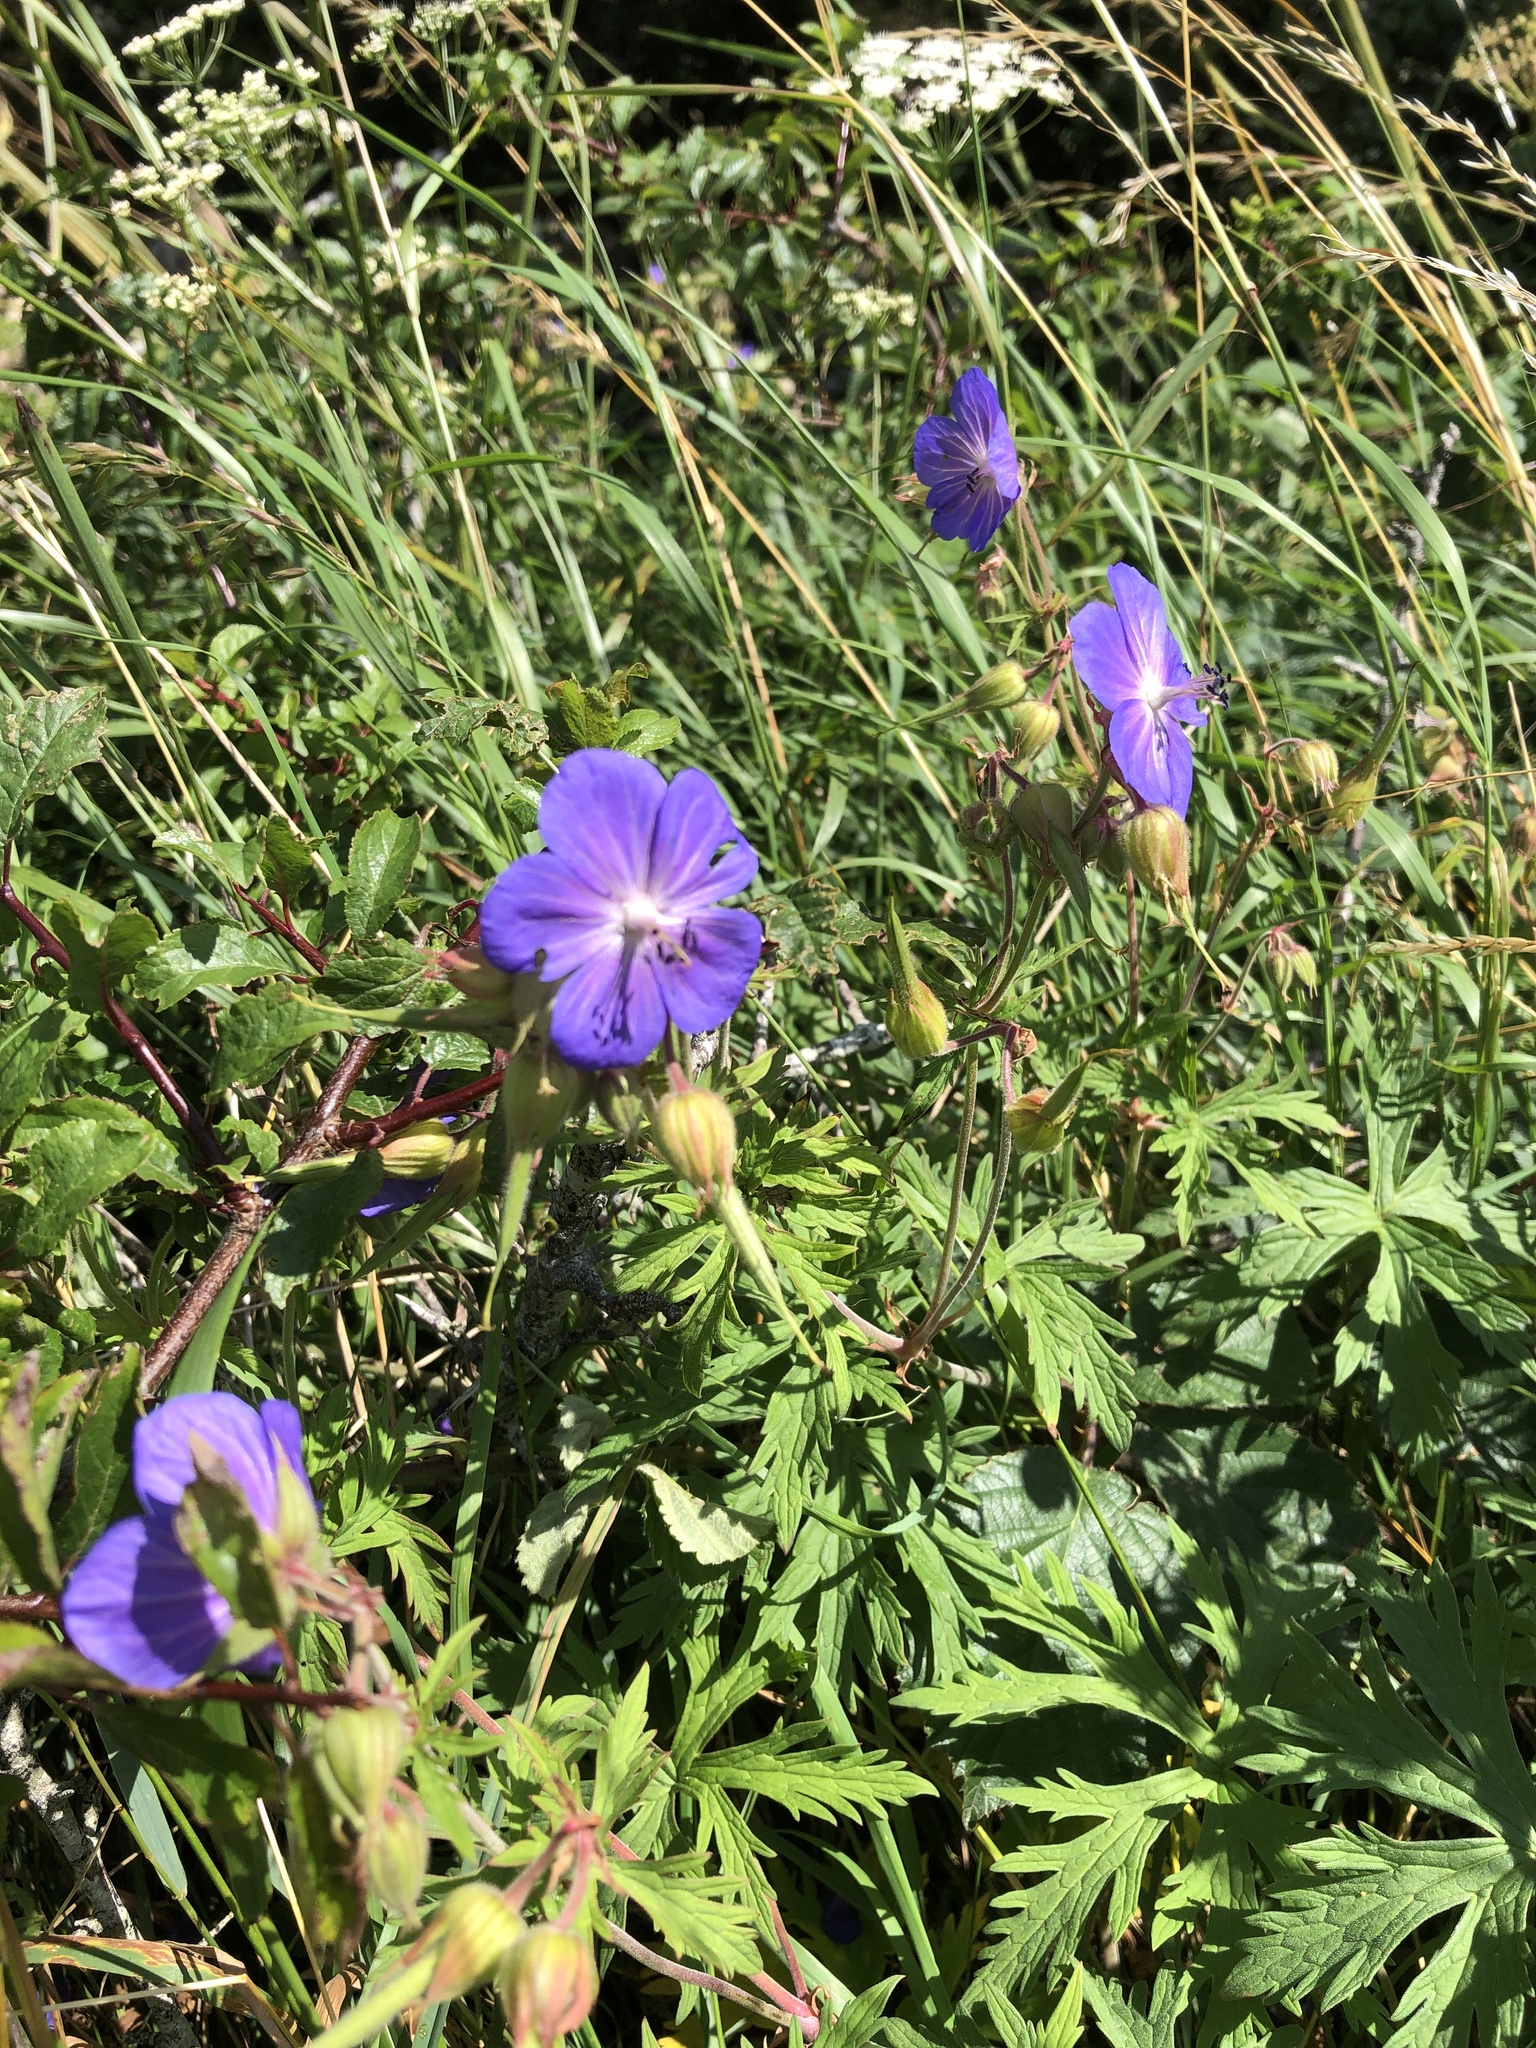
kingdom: Plantae
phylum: Tracheophyta
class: Magnoliopsida
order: Geraniales
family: Geraniaceae
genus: Geranium
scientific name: Geranium pratense
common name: Meadow crane's-bill
